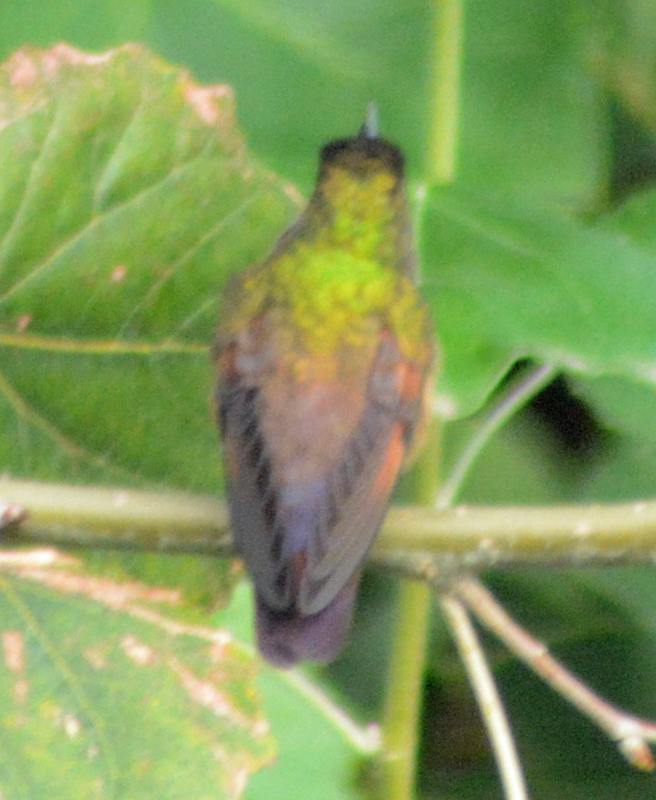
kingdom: Animalia
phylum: Chordata
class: Aves
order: Apodiformes
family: Trochilidae
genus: Saucerottia
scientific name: Saucerottia beryllina
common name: Berylline hummingbird
